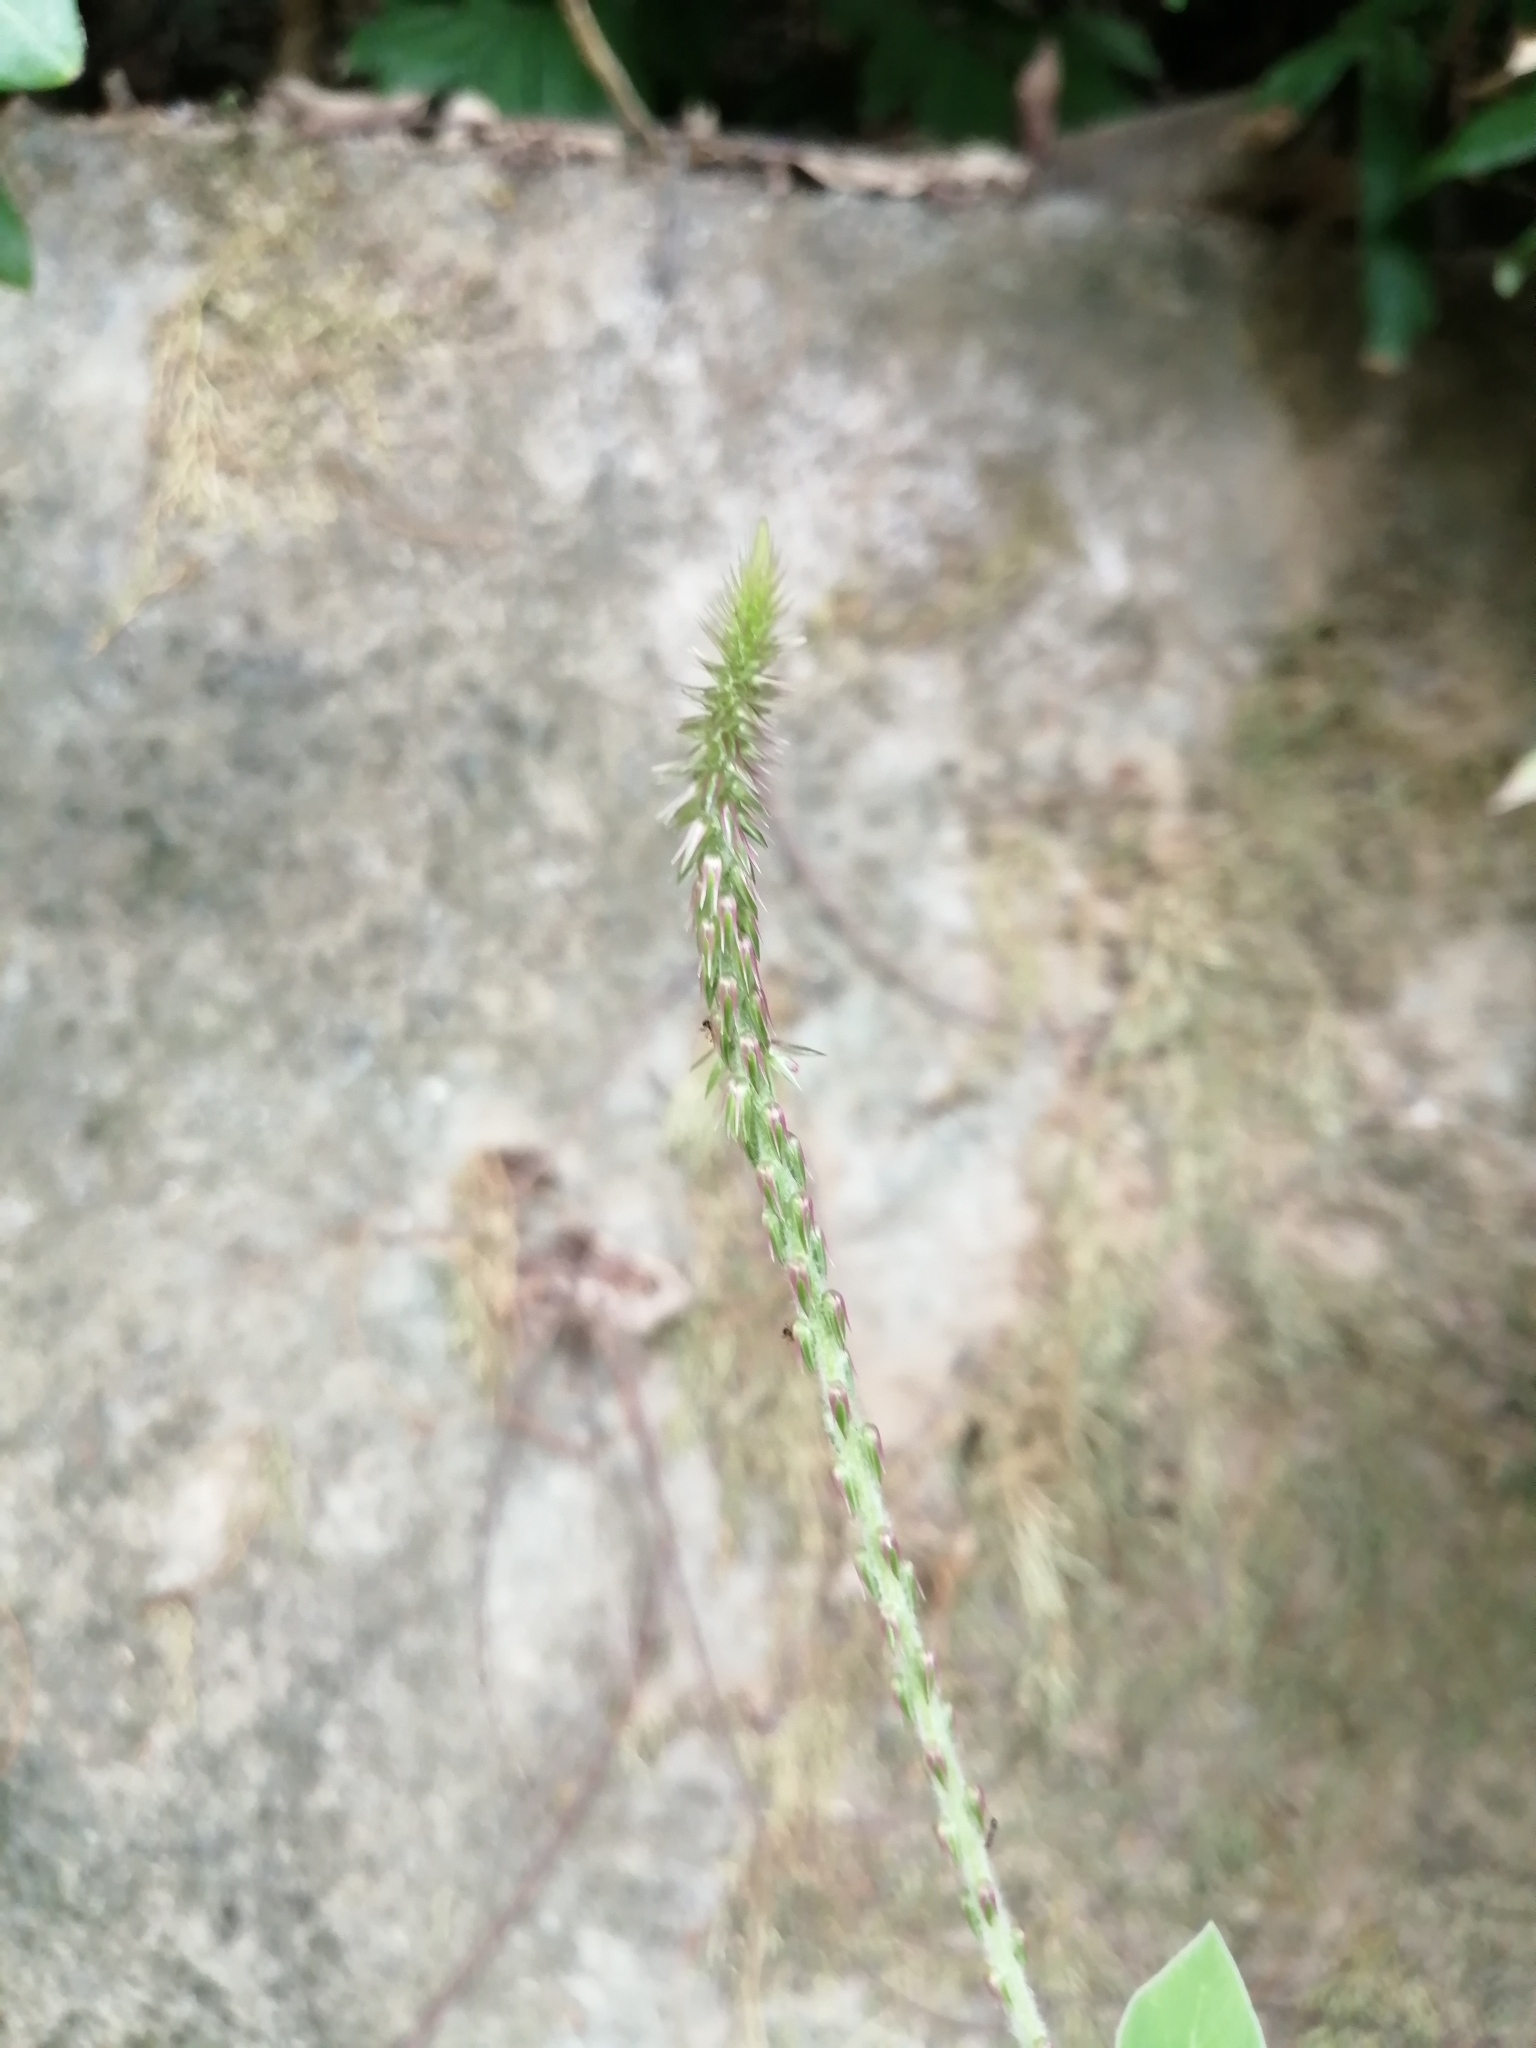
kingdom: Plantae
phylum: Tracheophyta
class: Magnoliopsida
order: Caryophyllales
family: Amaranthaceae
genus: Achyranthes
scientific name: Achyranthes aspera
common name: Devil's horsewhip
